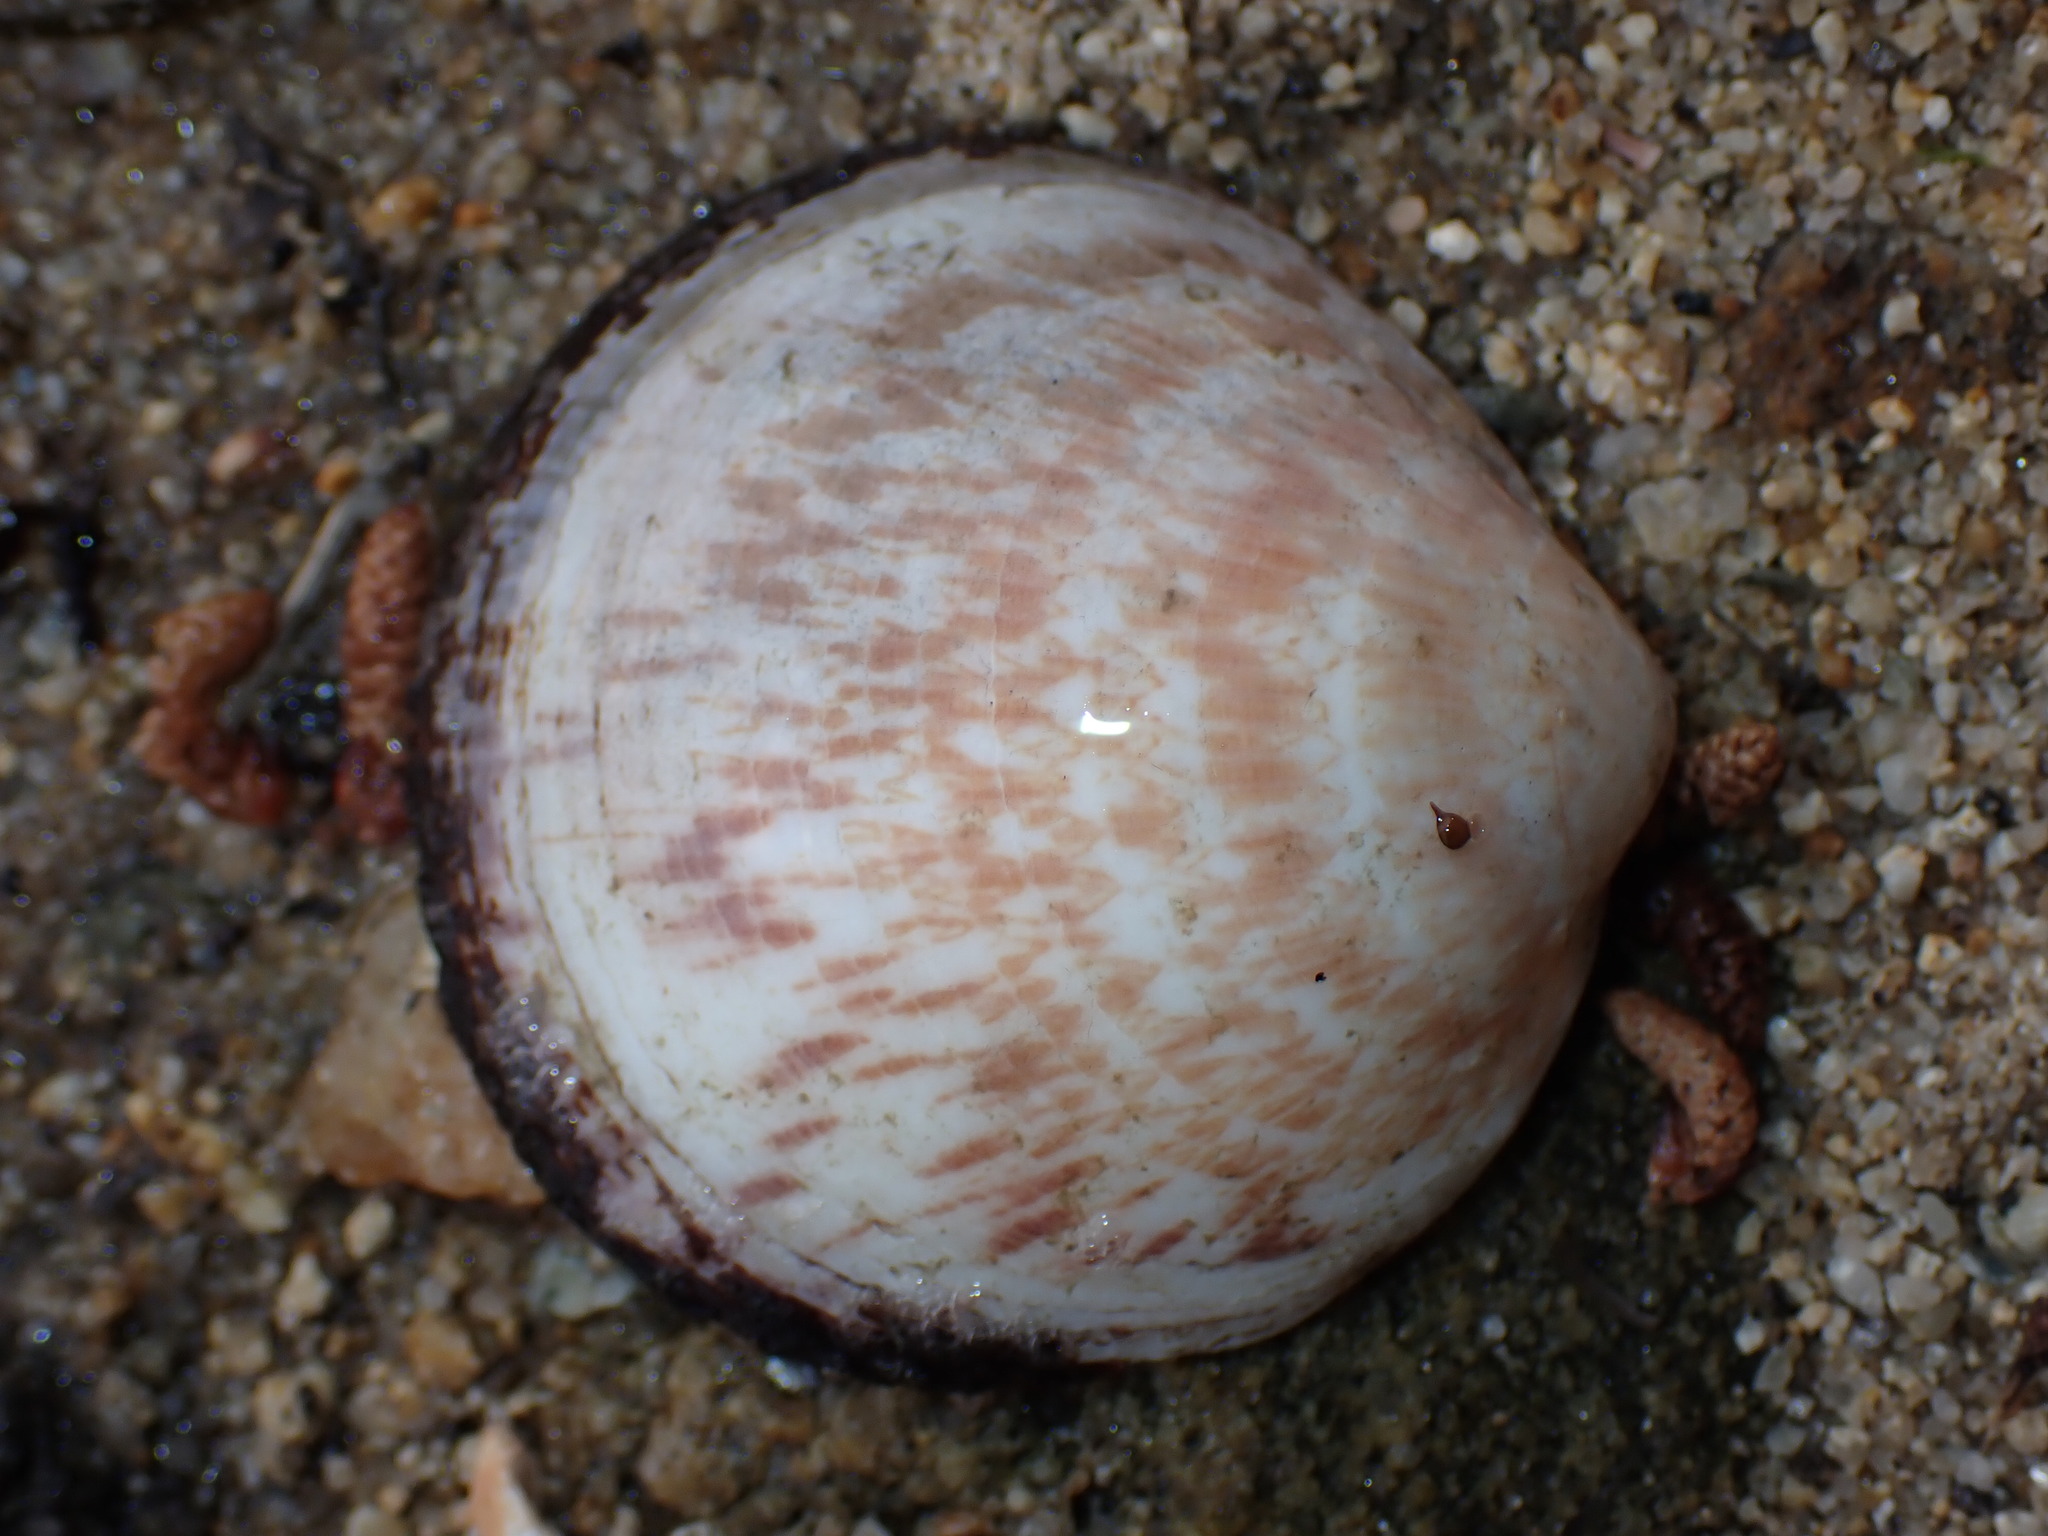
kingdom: Animalia
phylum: Mollusca
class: Bivalvia
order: Arcida
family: Glycymerididae
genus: Glycymeris
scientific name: Glycymeris glycymeris
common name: Dog-cockle
